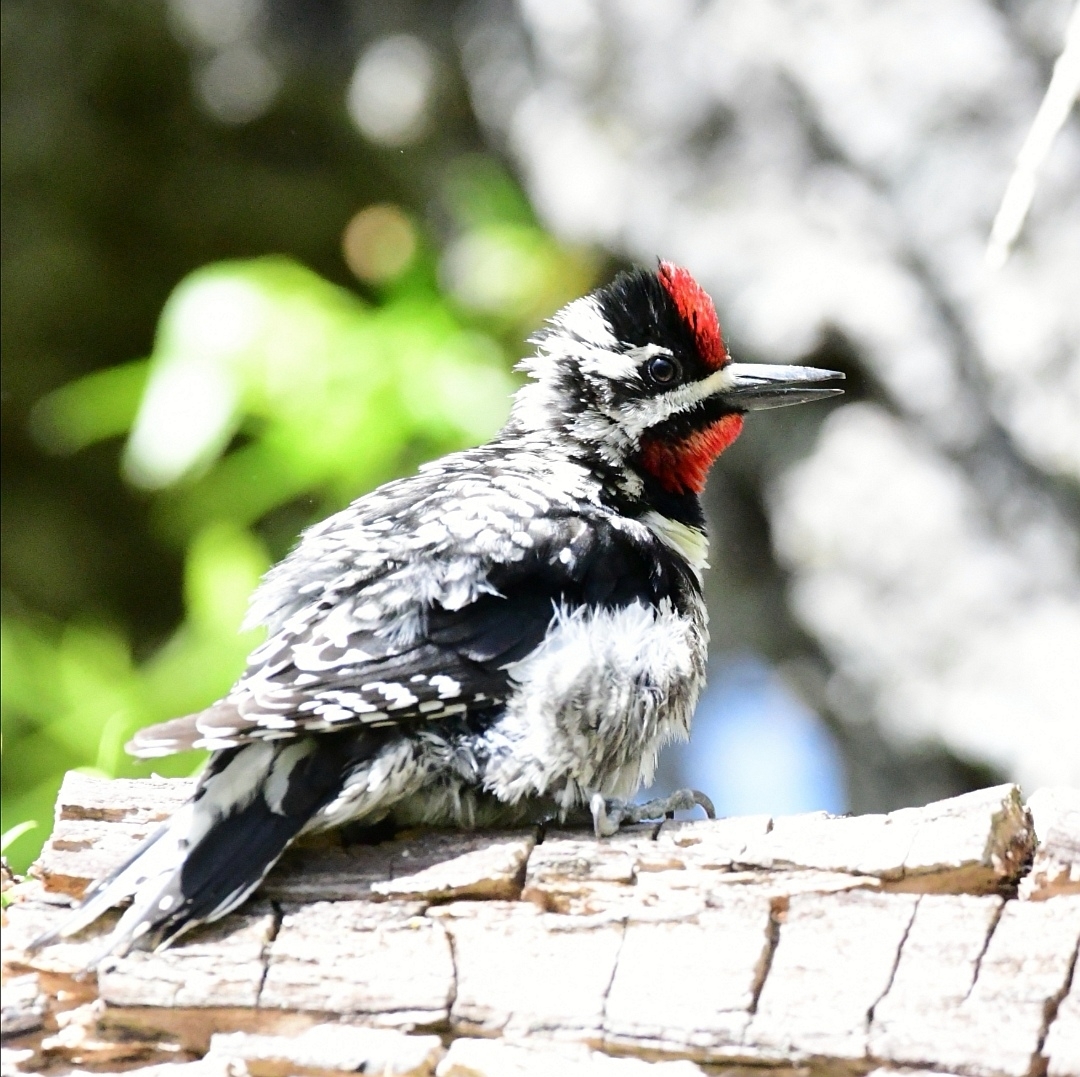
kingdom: Animalia
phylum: Chordata
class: Aves
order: Piciformes
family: Picidae
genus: Sphyrapicus
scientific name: Sphyrapicus varius
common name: Yellow-bellied sapsucker
